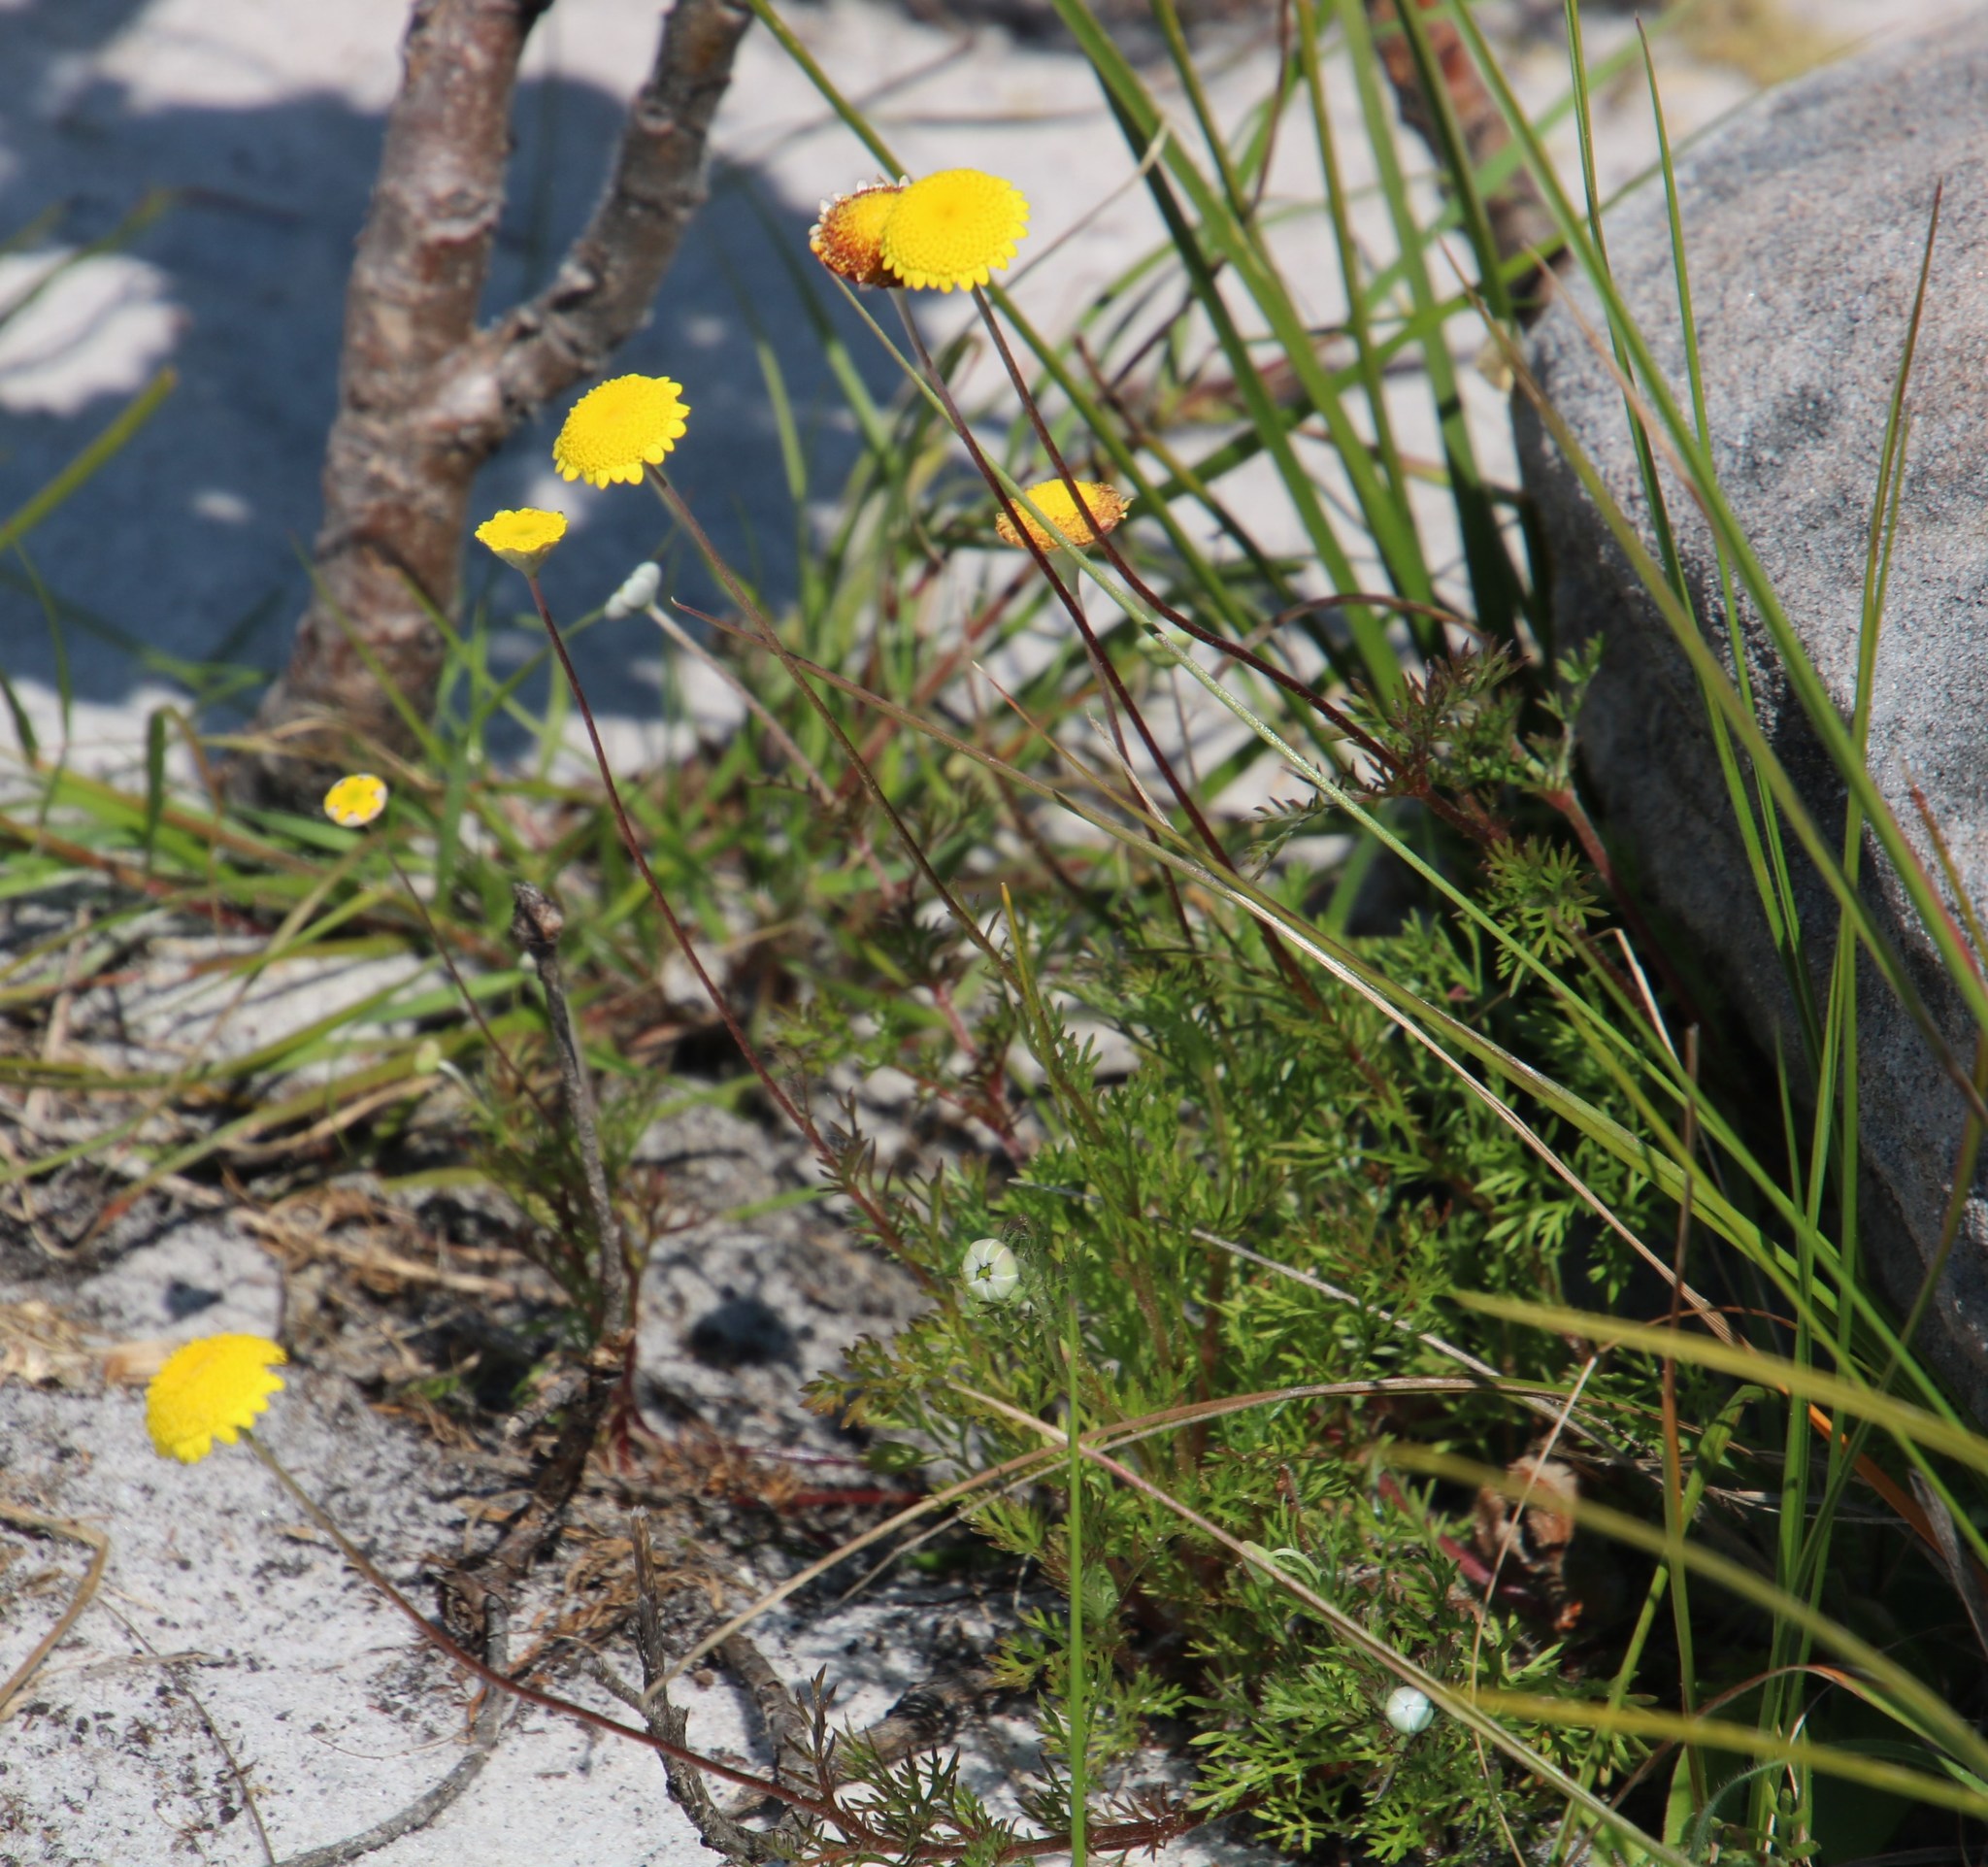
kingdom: Plantae
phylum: Tracheophyta
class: Magnoliopsida
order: Asterales
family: Asteraceae
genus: Cotula
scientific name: Cotula pruinosa
